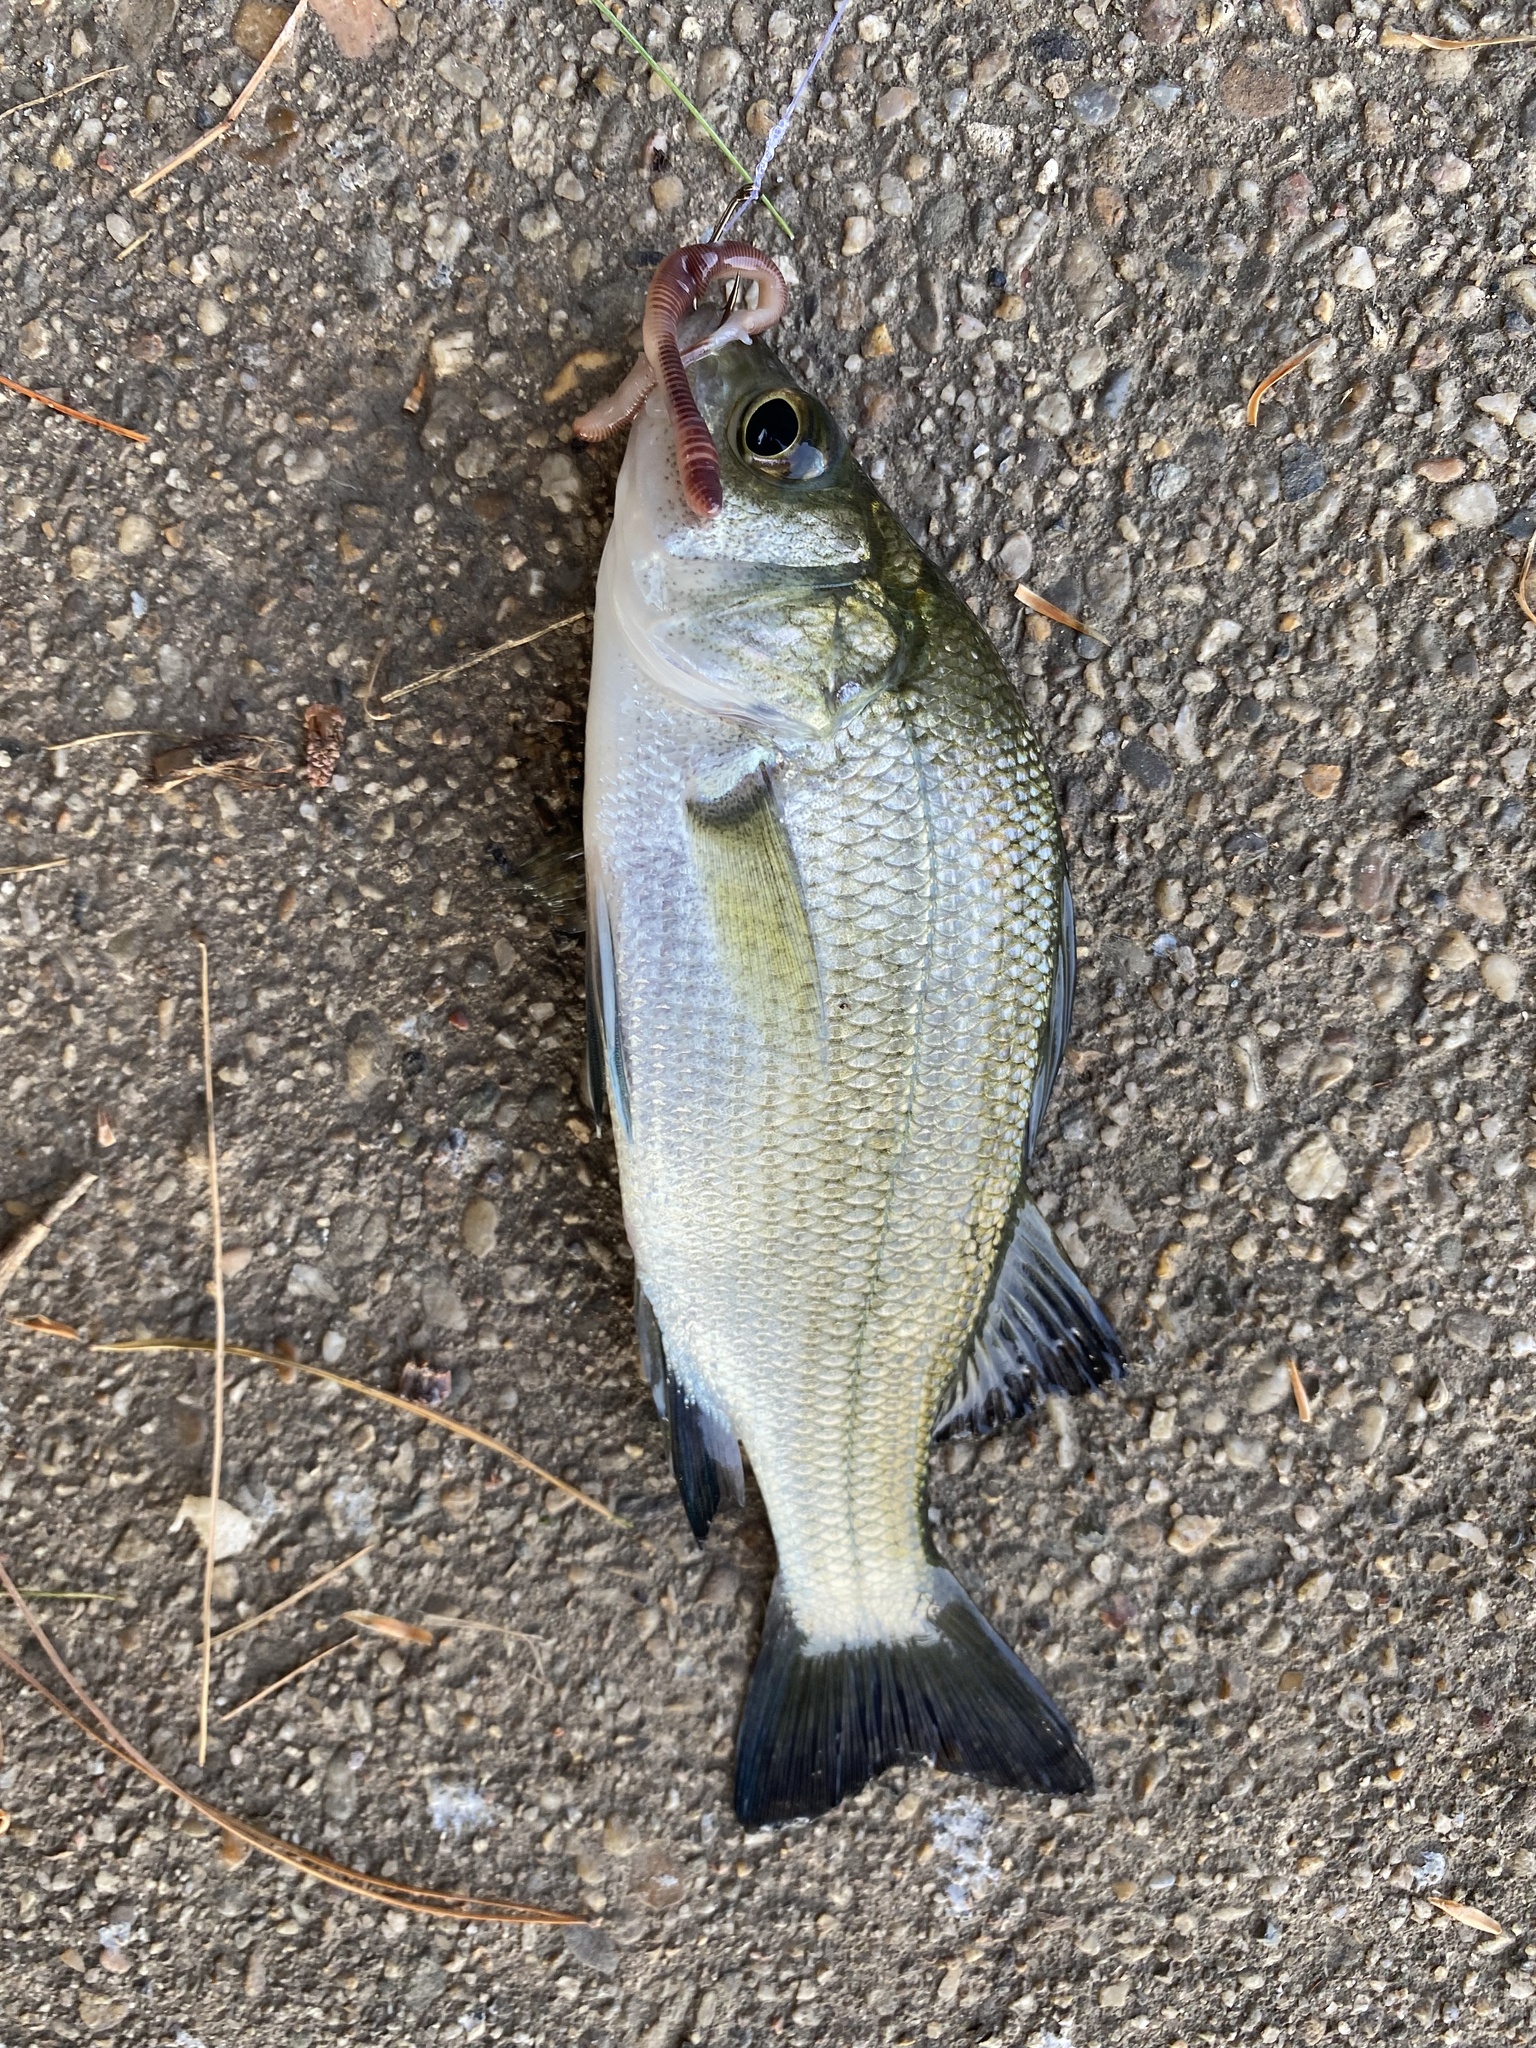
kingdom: Animalia
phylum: Chordata
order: Perciformes
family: Moronidae
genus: Morone
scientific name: Morone americana
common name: White perch
